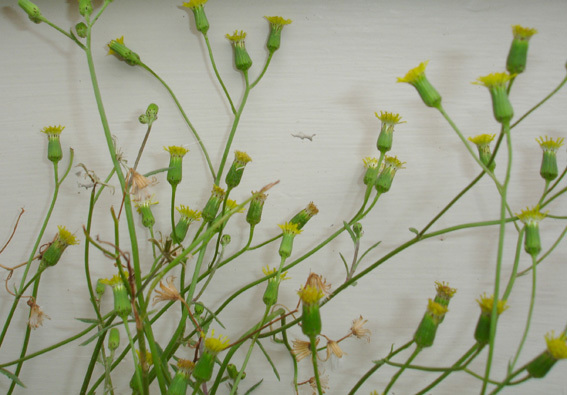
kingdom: Plantae
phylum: Tracheophyta
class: Magnoliopsida
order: Asterales
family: Asteraceae
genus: Senecio
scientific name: Senecio marotiri
